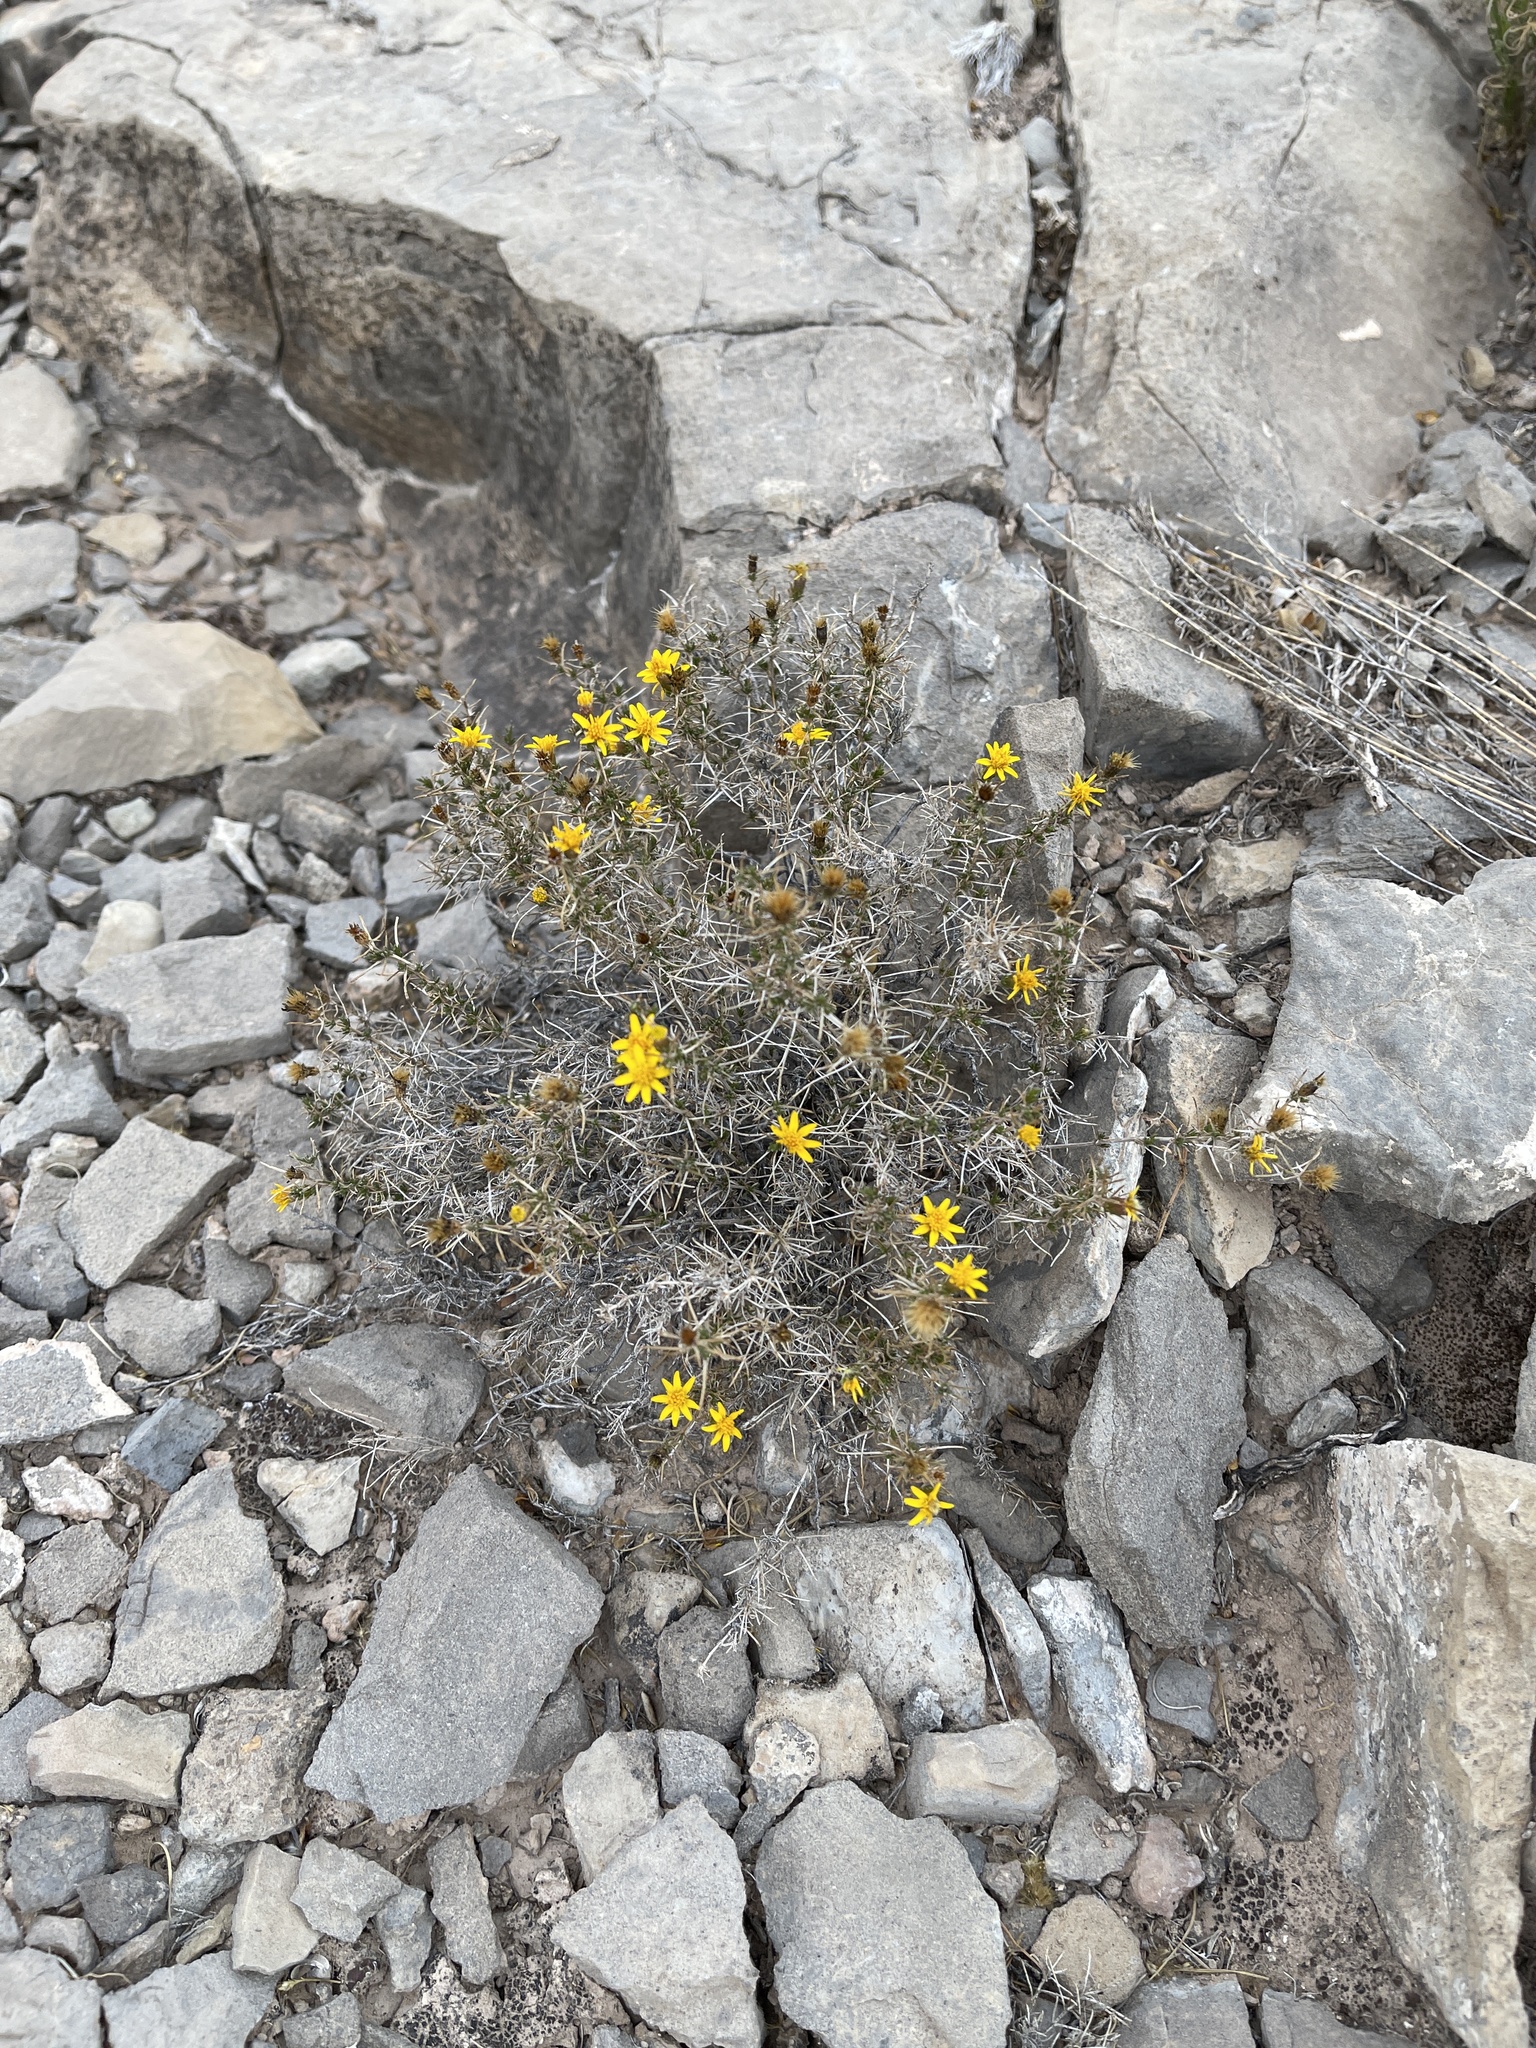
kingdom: Plantae
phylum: Tracheophyta
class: Magnoliopsida
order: Asterales
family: Asteraceae
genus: Thymophylla
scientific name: Thymophylla acerosa
